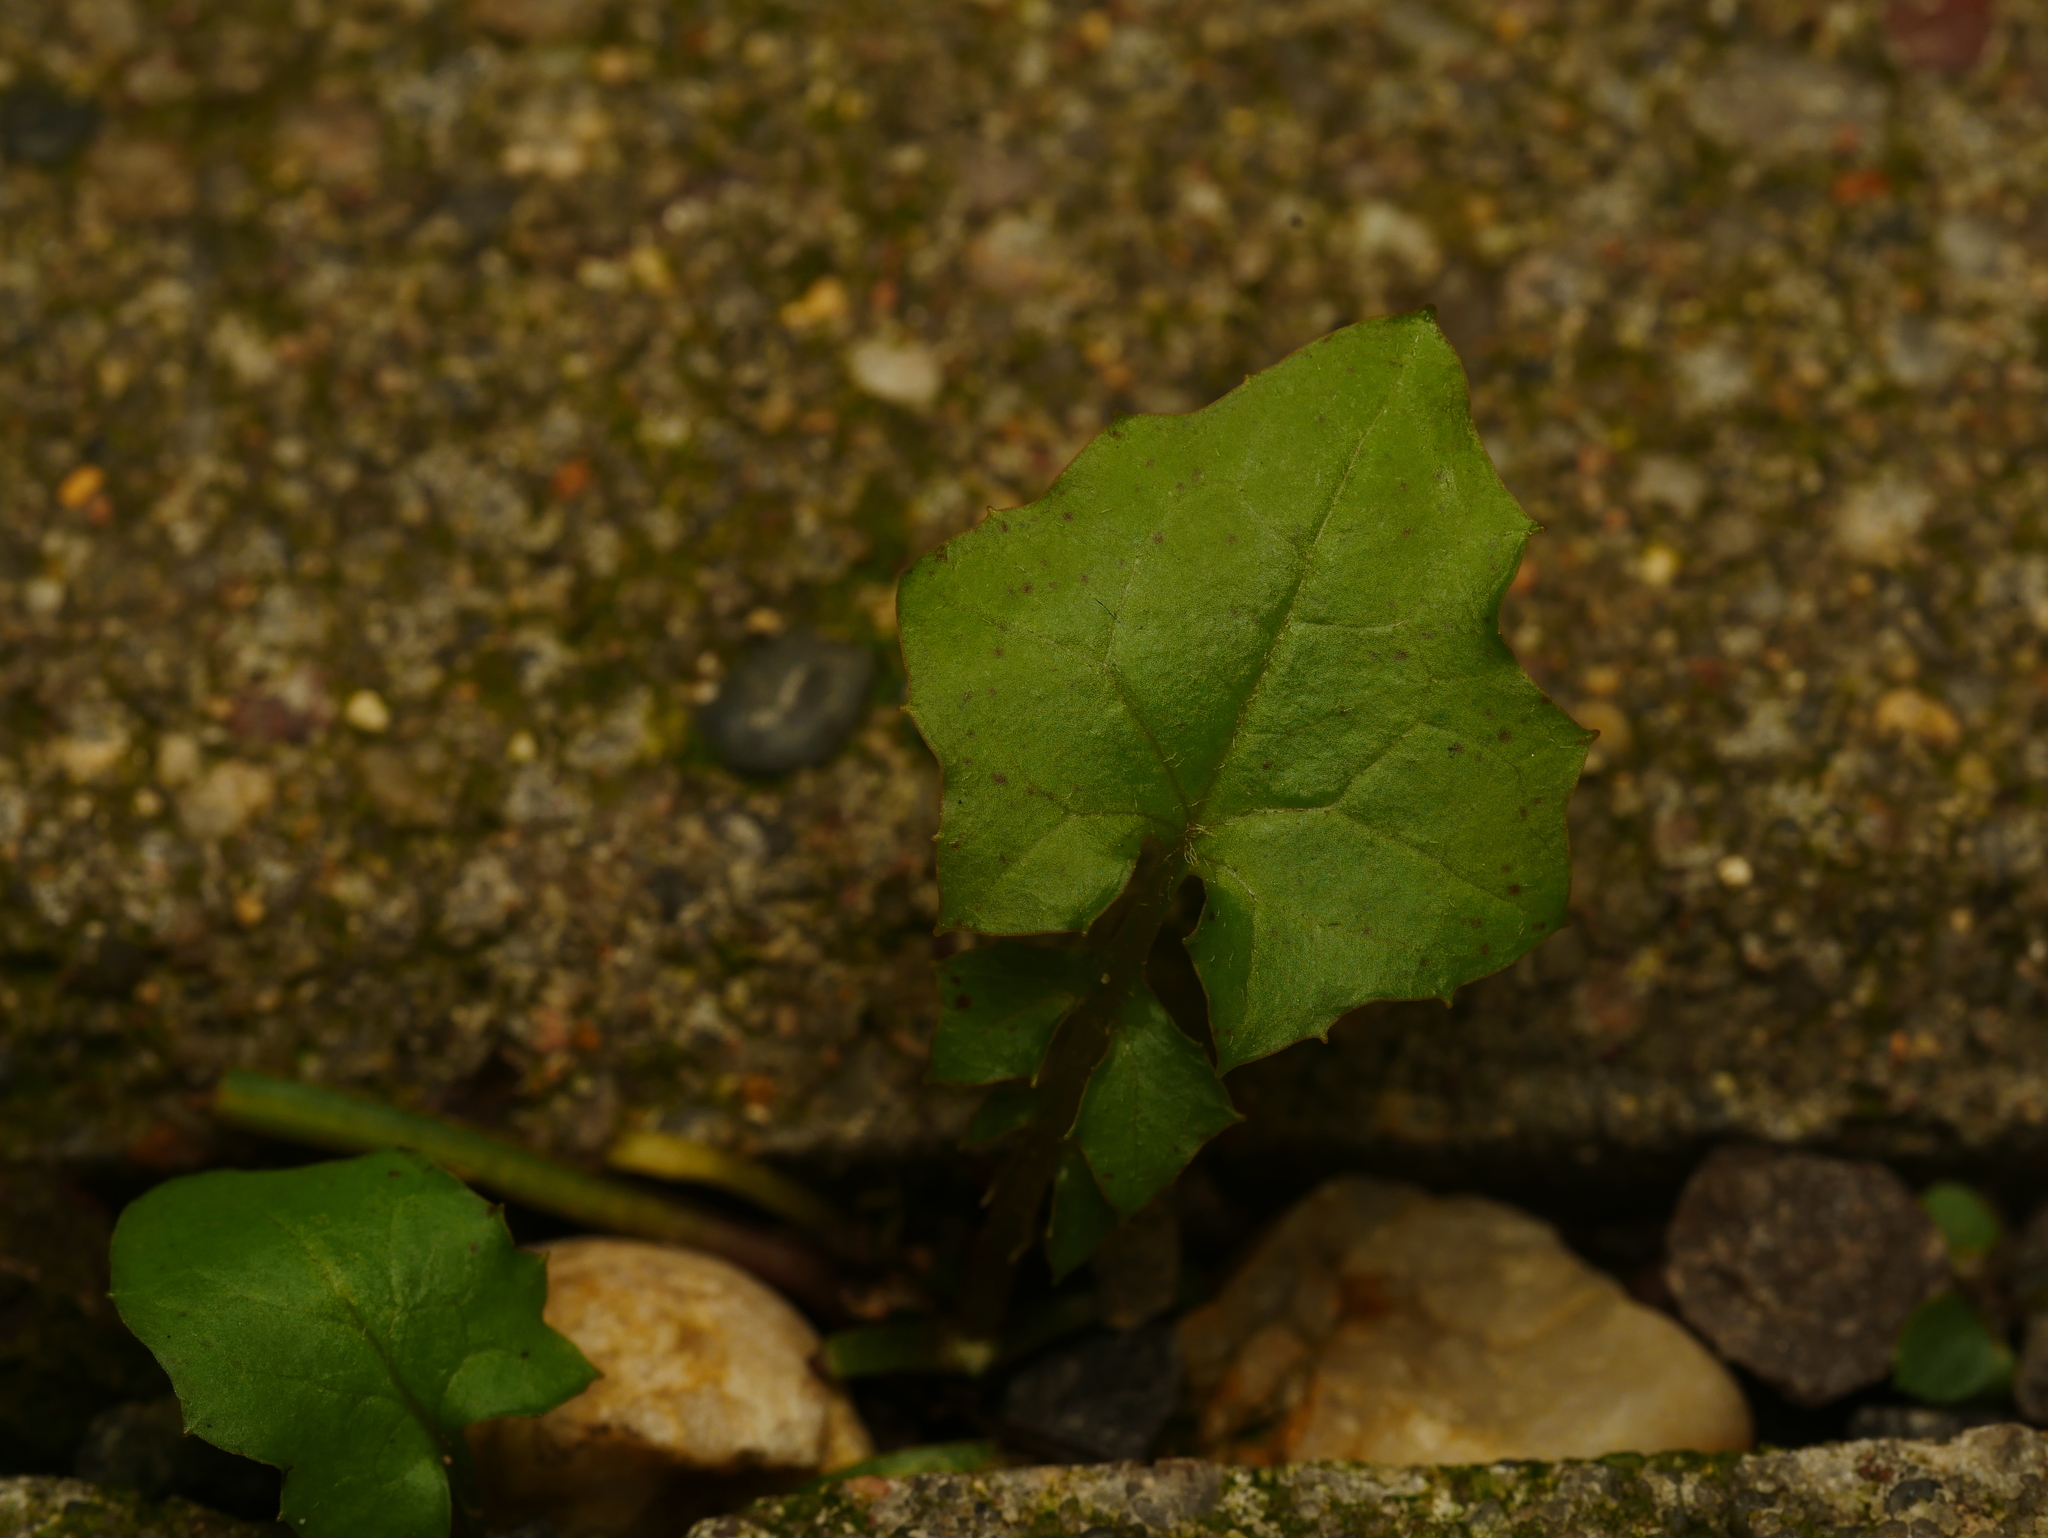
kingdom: Plantae
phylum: Tracheophyta
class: Magnoliopsida
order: Asterales
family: Asteraceae
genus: Mycelis
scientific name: Mycelis muralis
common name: Wall lettuce
